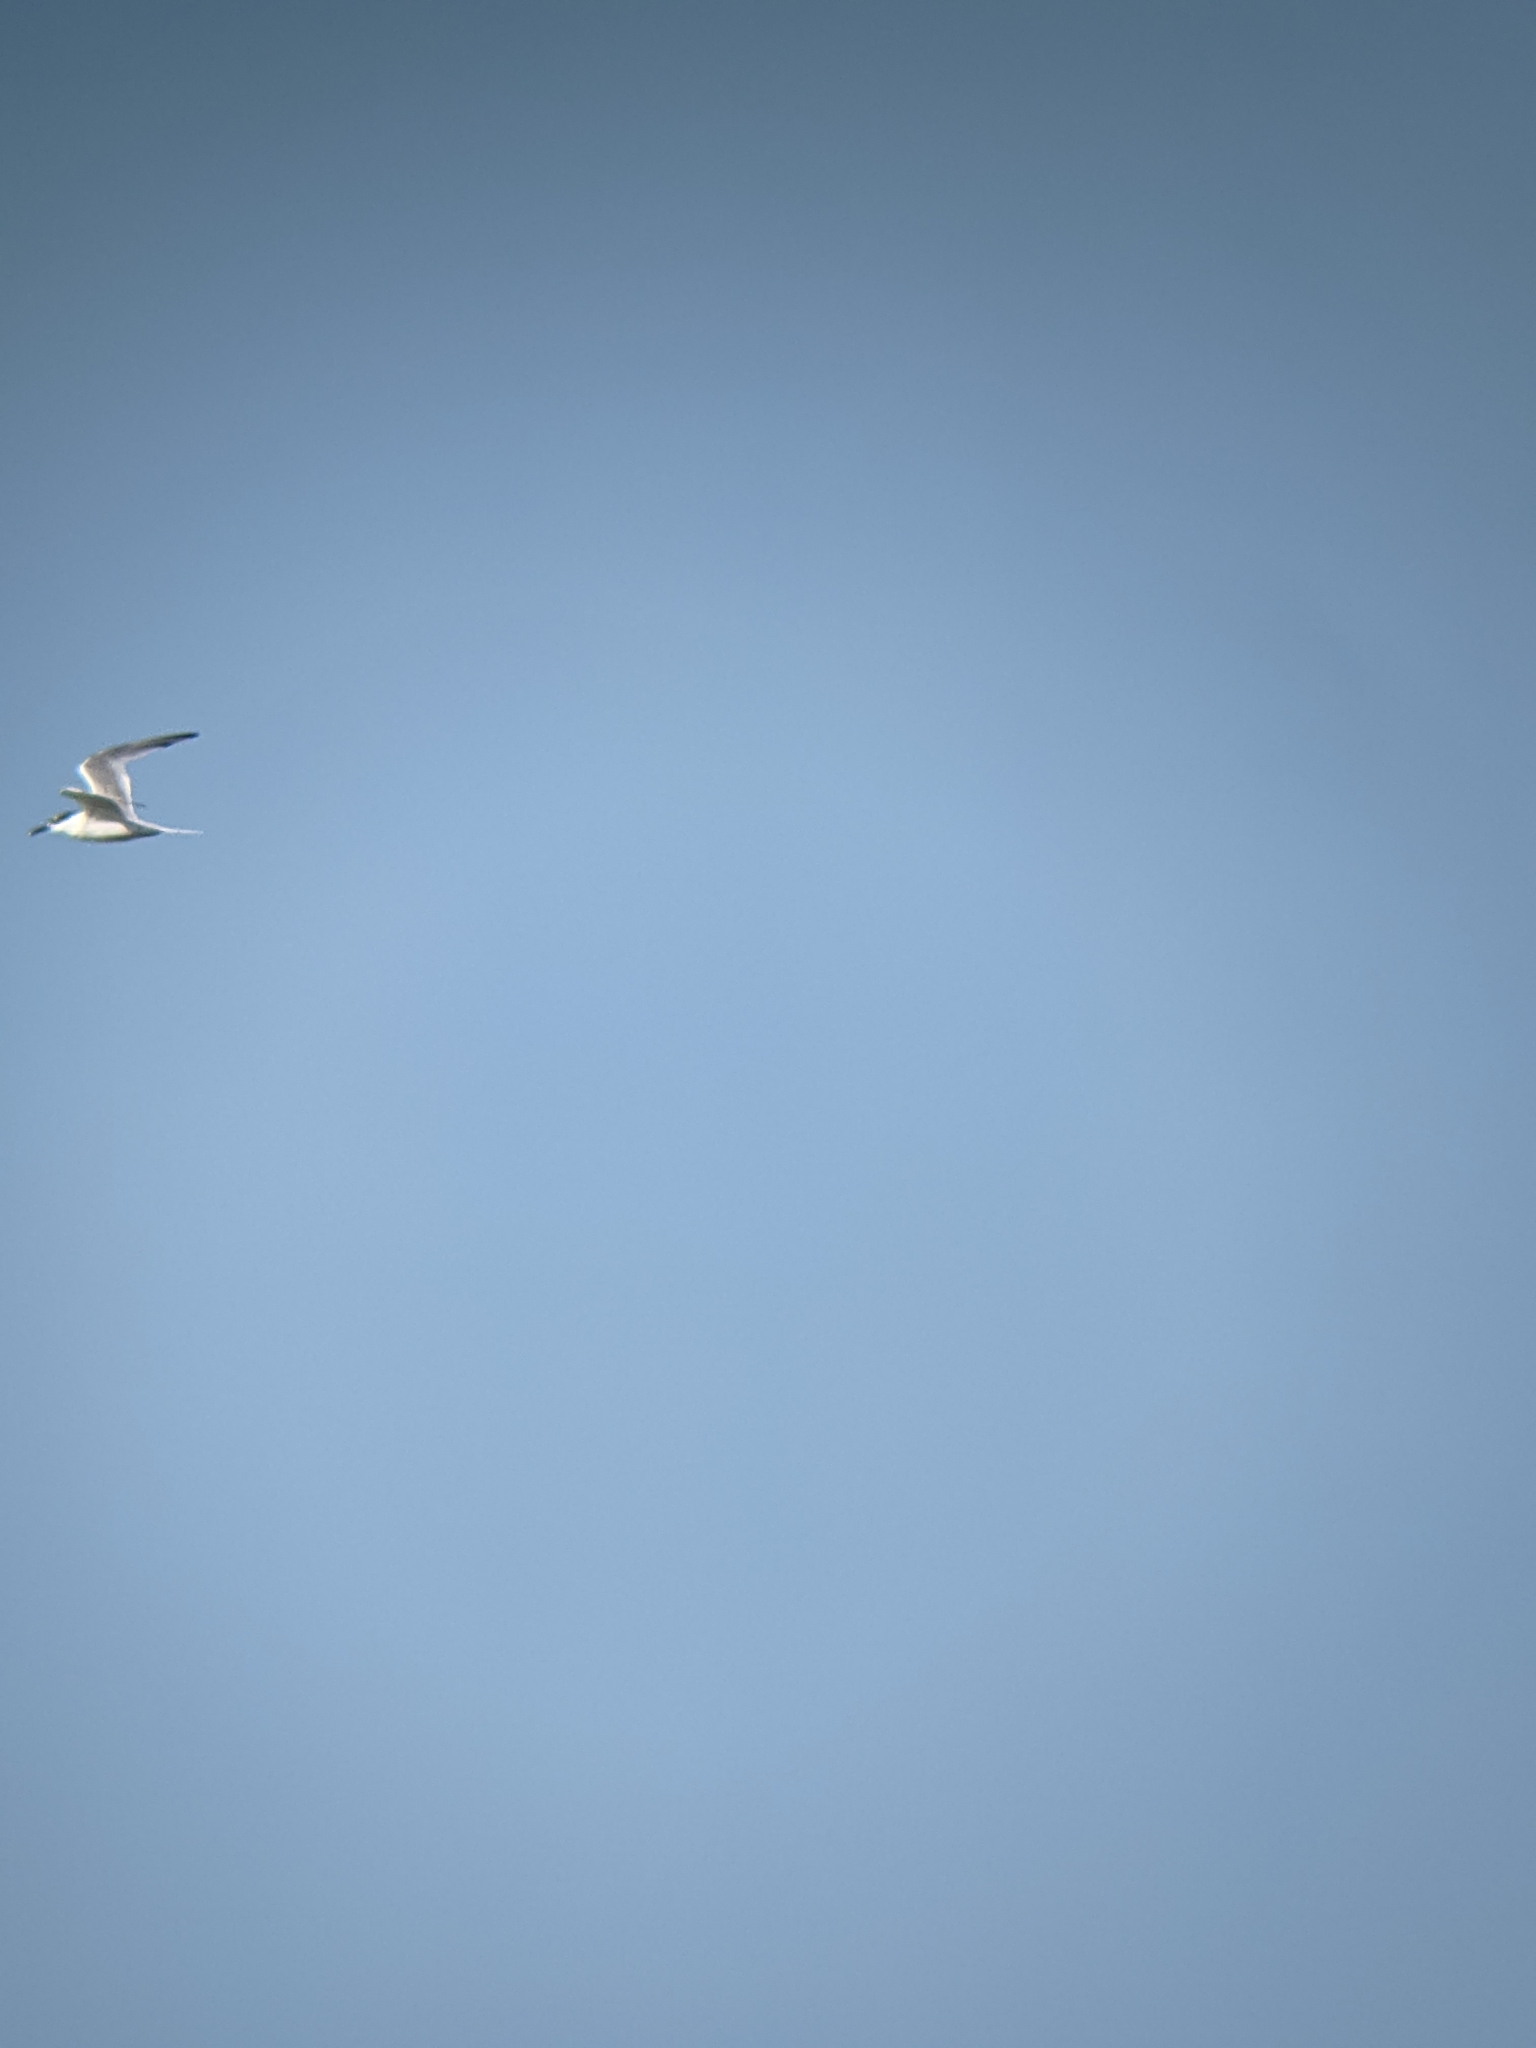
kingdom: Animalia
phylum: Chordata
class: Aves
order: Charadriiformes
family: Laridae
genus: Thalasseus
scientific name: Thalasseus sandvicensis
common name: Sandwich tern
